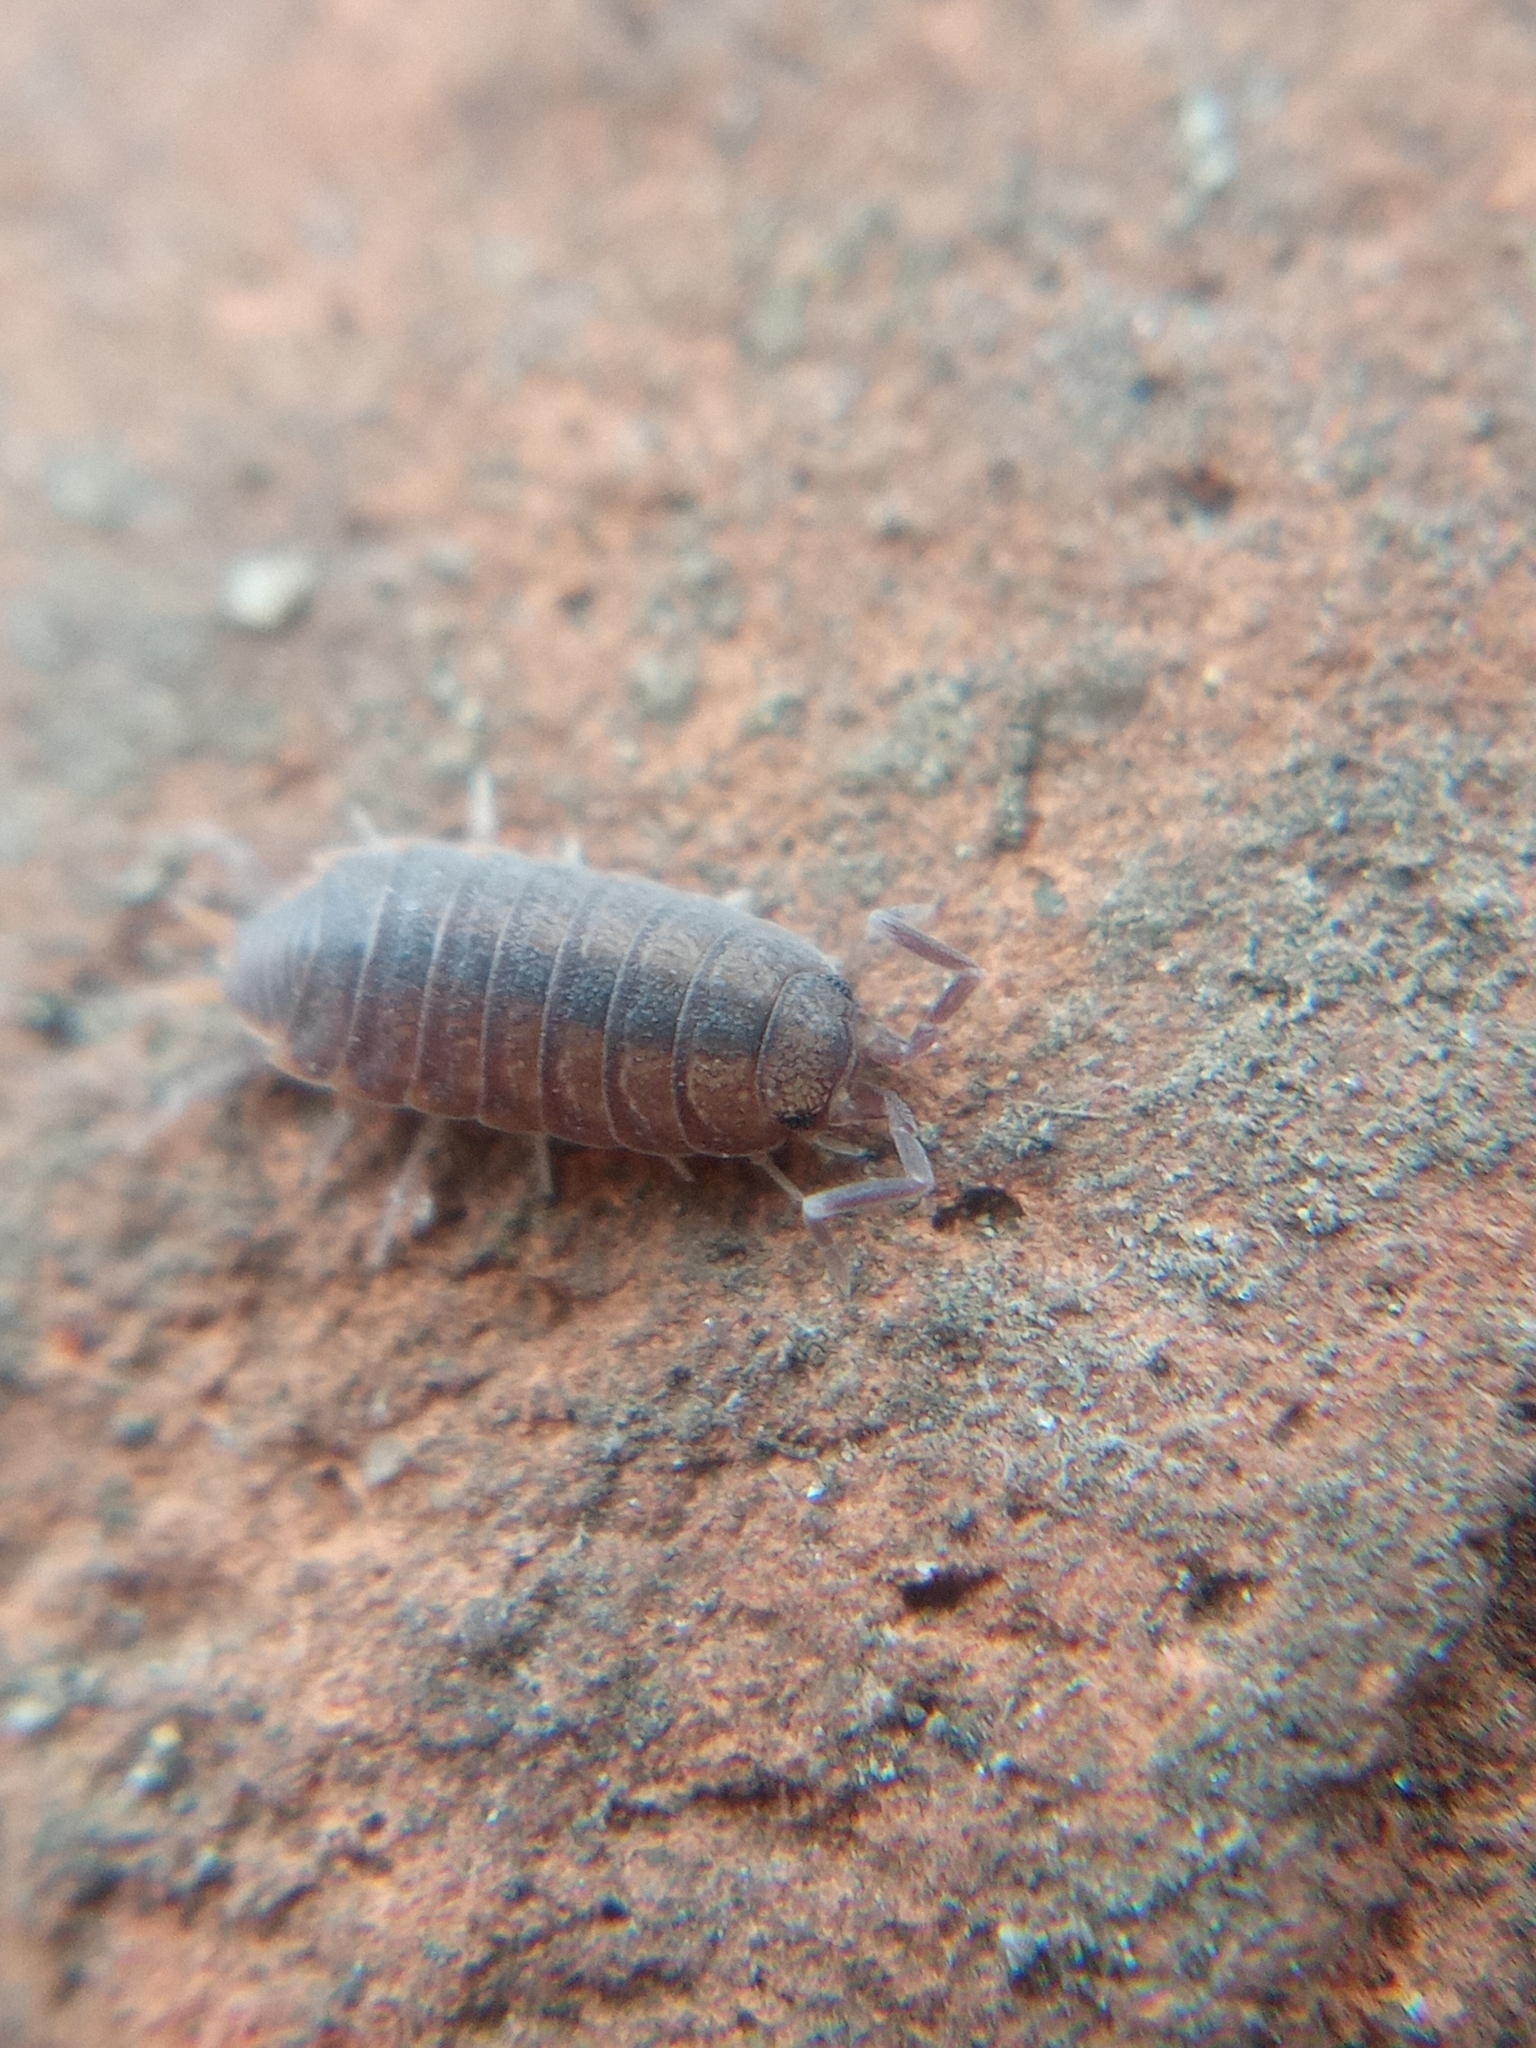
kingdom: Animalia
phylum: Arthropoda
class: Malacostraca
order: Isopoda
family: Porcellionidae
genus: Porcellionides
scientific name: Porcellionides pruinosus
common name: Plum woodlouse
